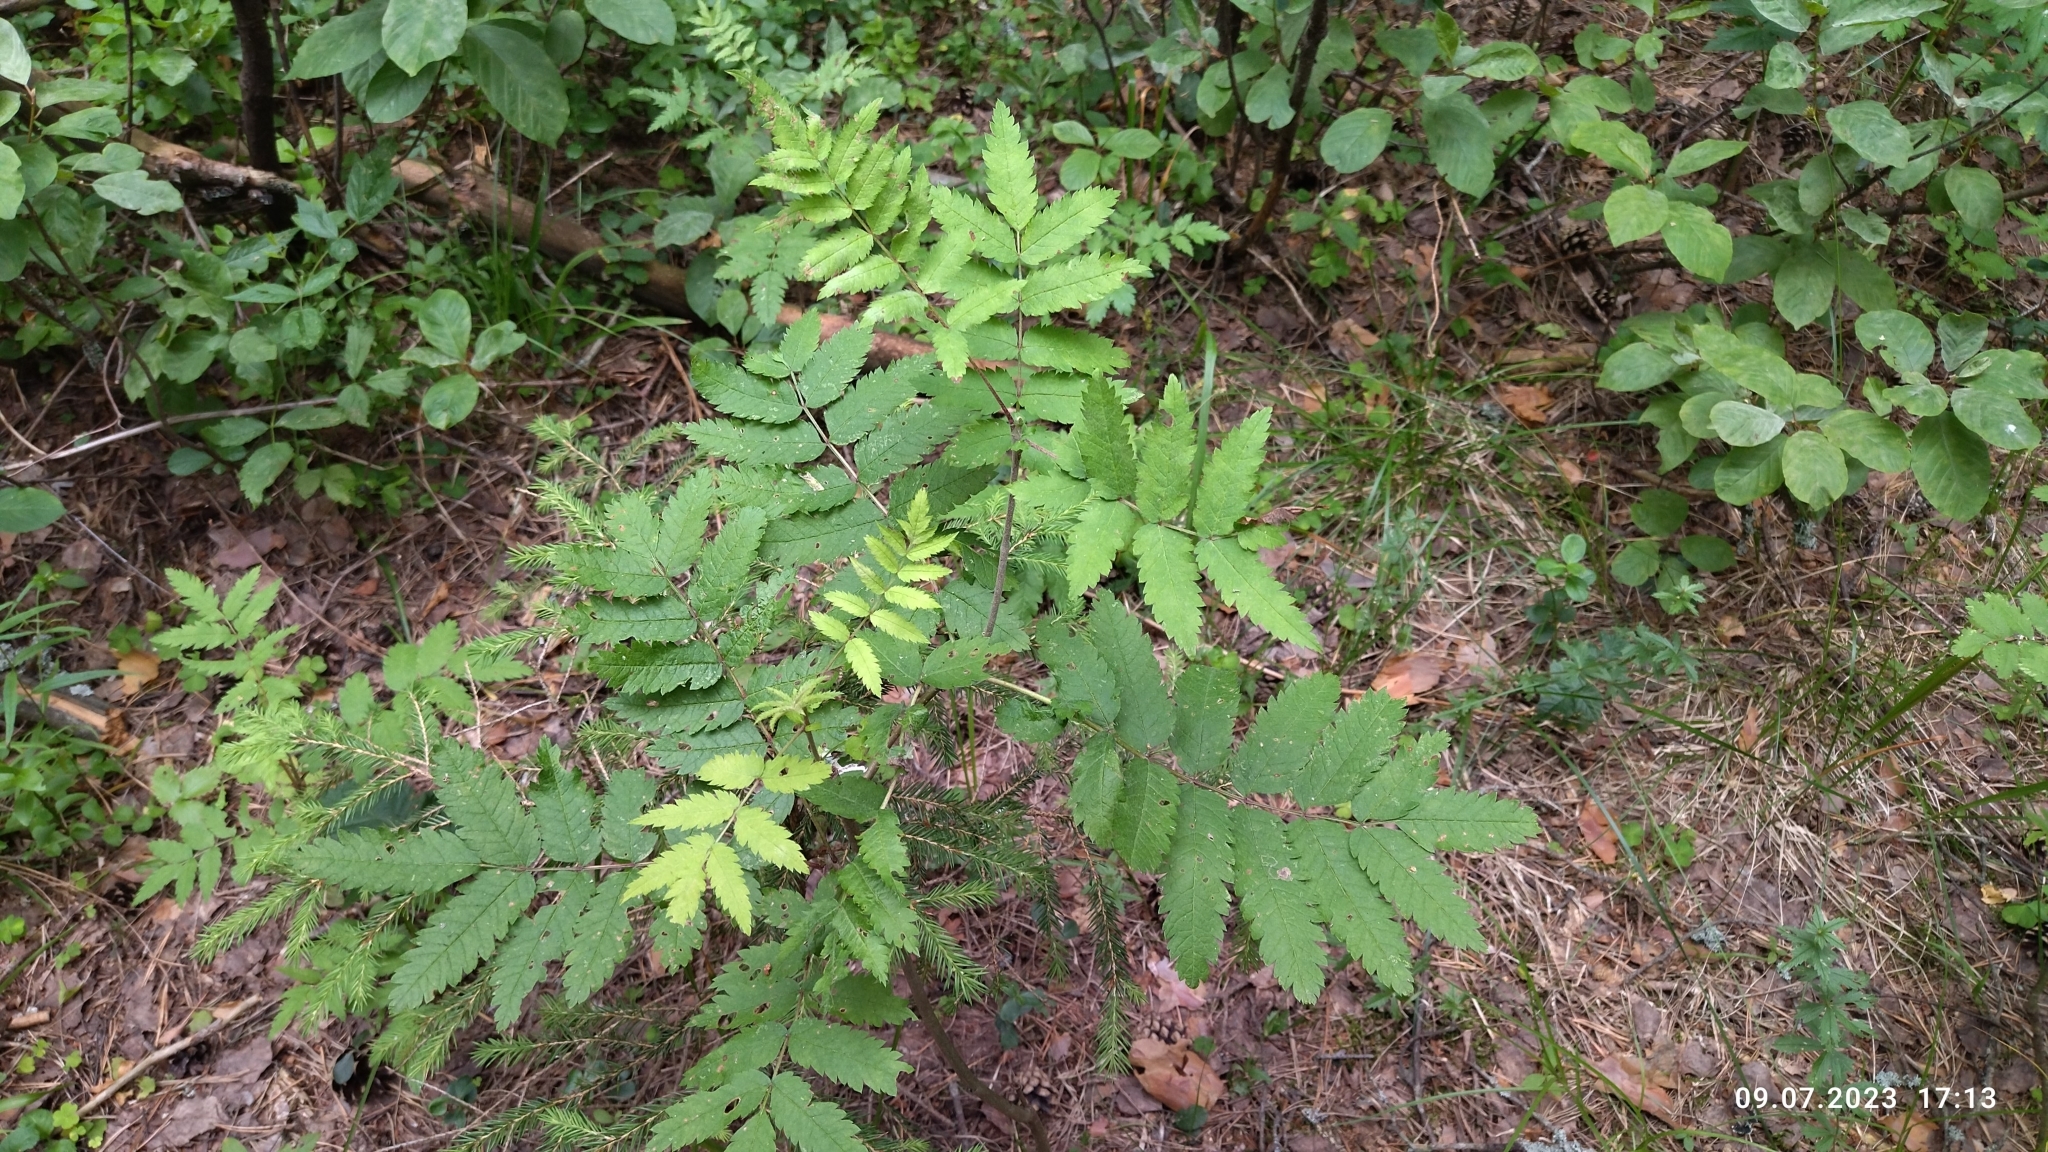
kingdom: Plantae
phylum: Tracheophyta
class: Magnoliopsida
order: Rosales
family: Rosaceae
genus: Sorbus
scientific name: Sorbus aucuparia
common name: Rowan
